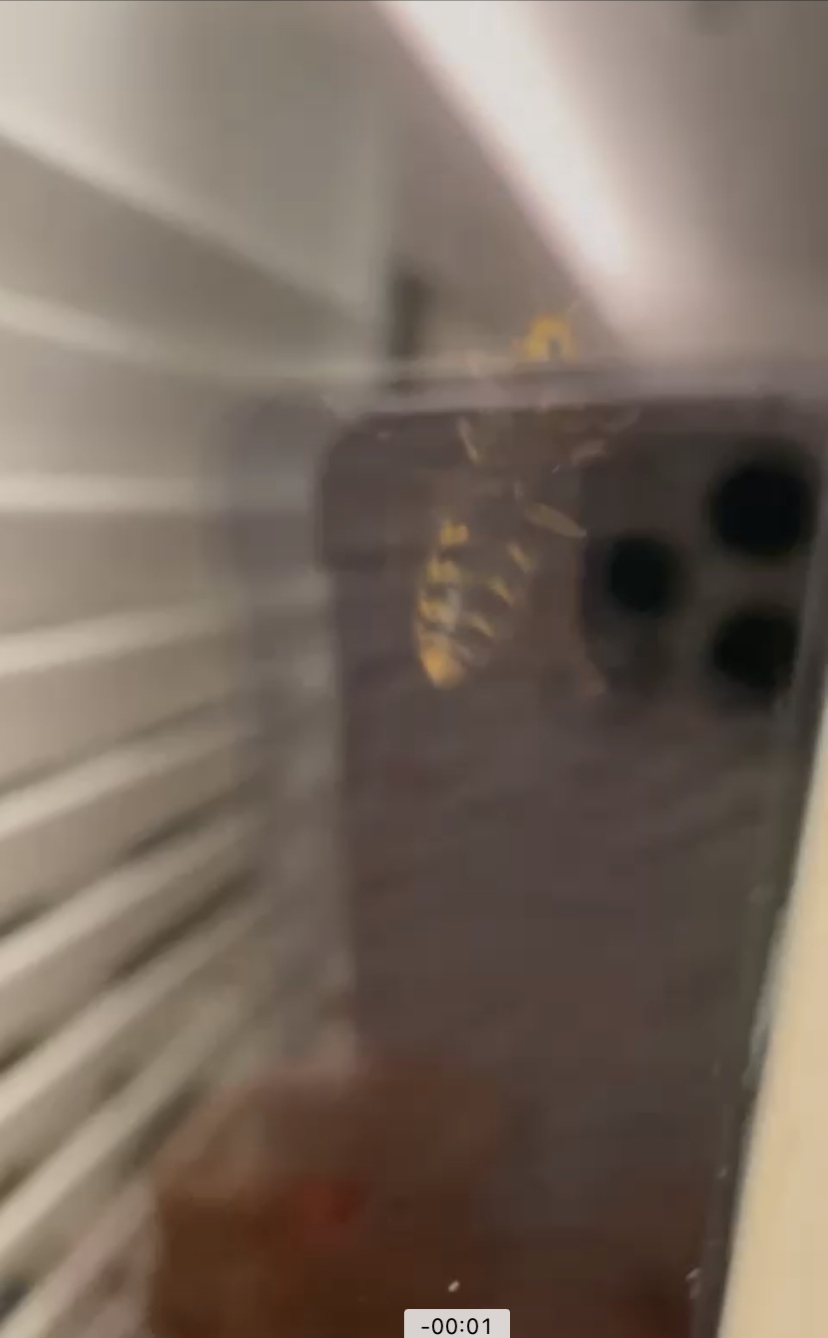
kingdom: Animalia
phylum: Arthropoda
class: Insecta
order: Hymenoptera
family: Vespidae
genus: Vespa
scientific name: Vespa crabro
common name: Hornet
